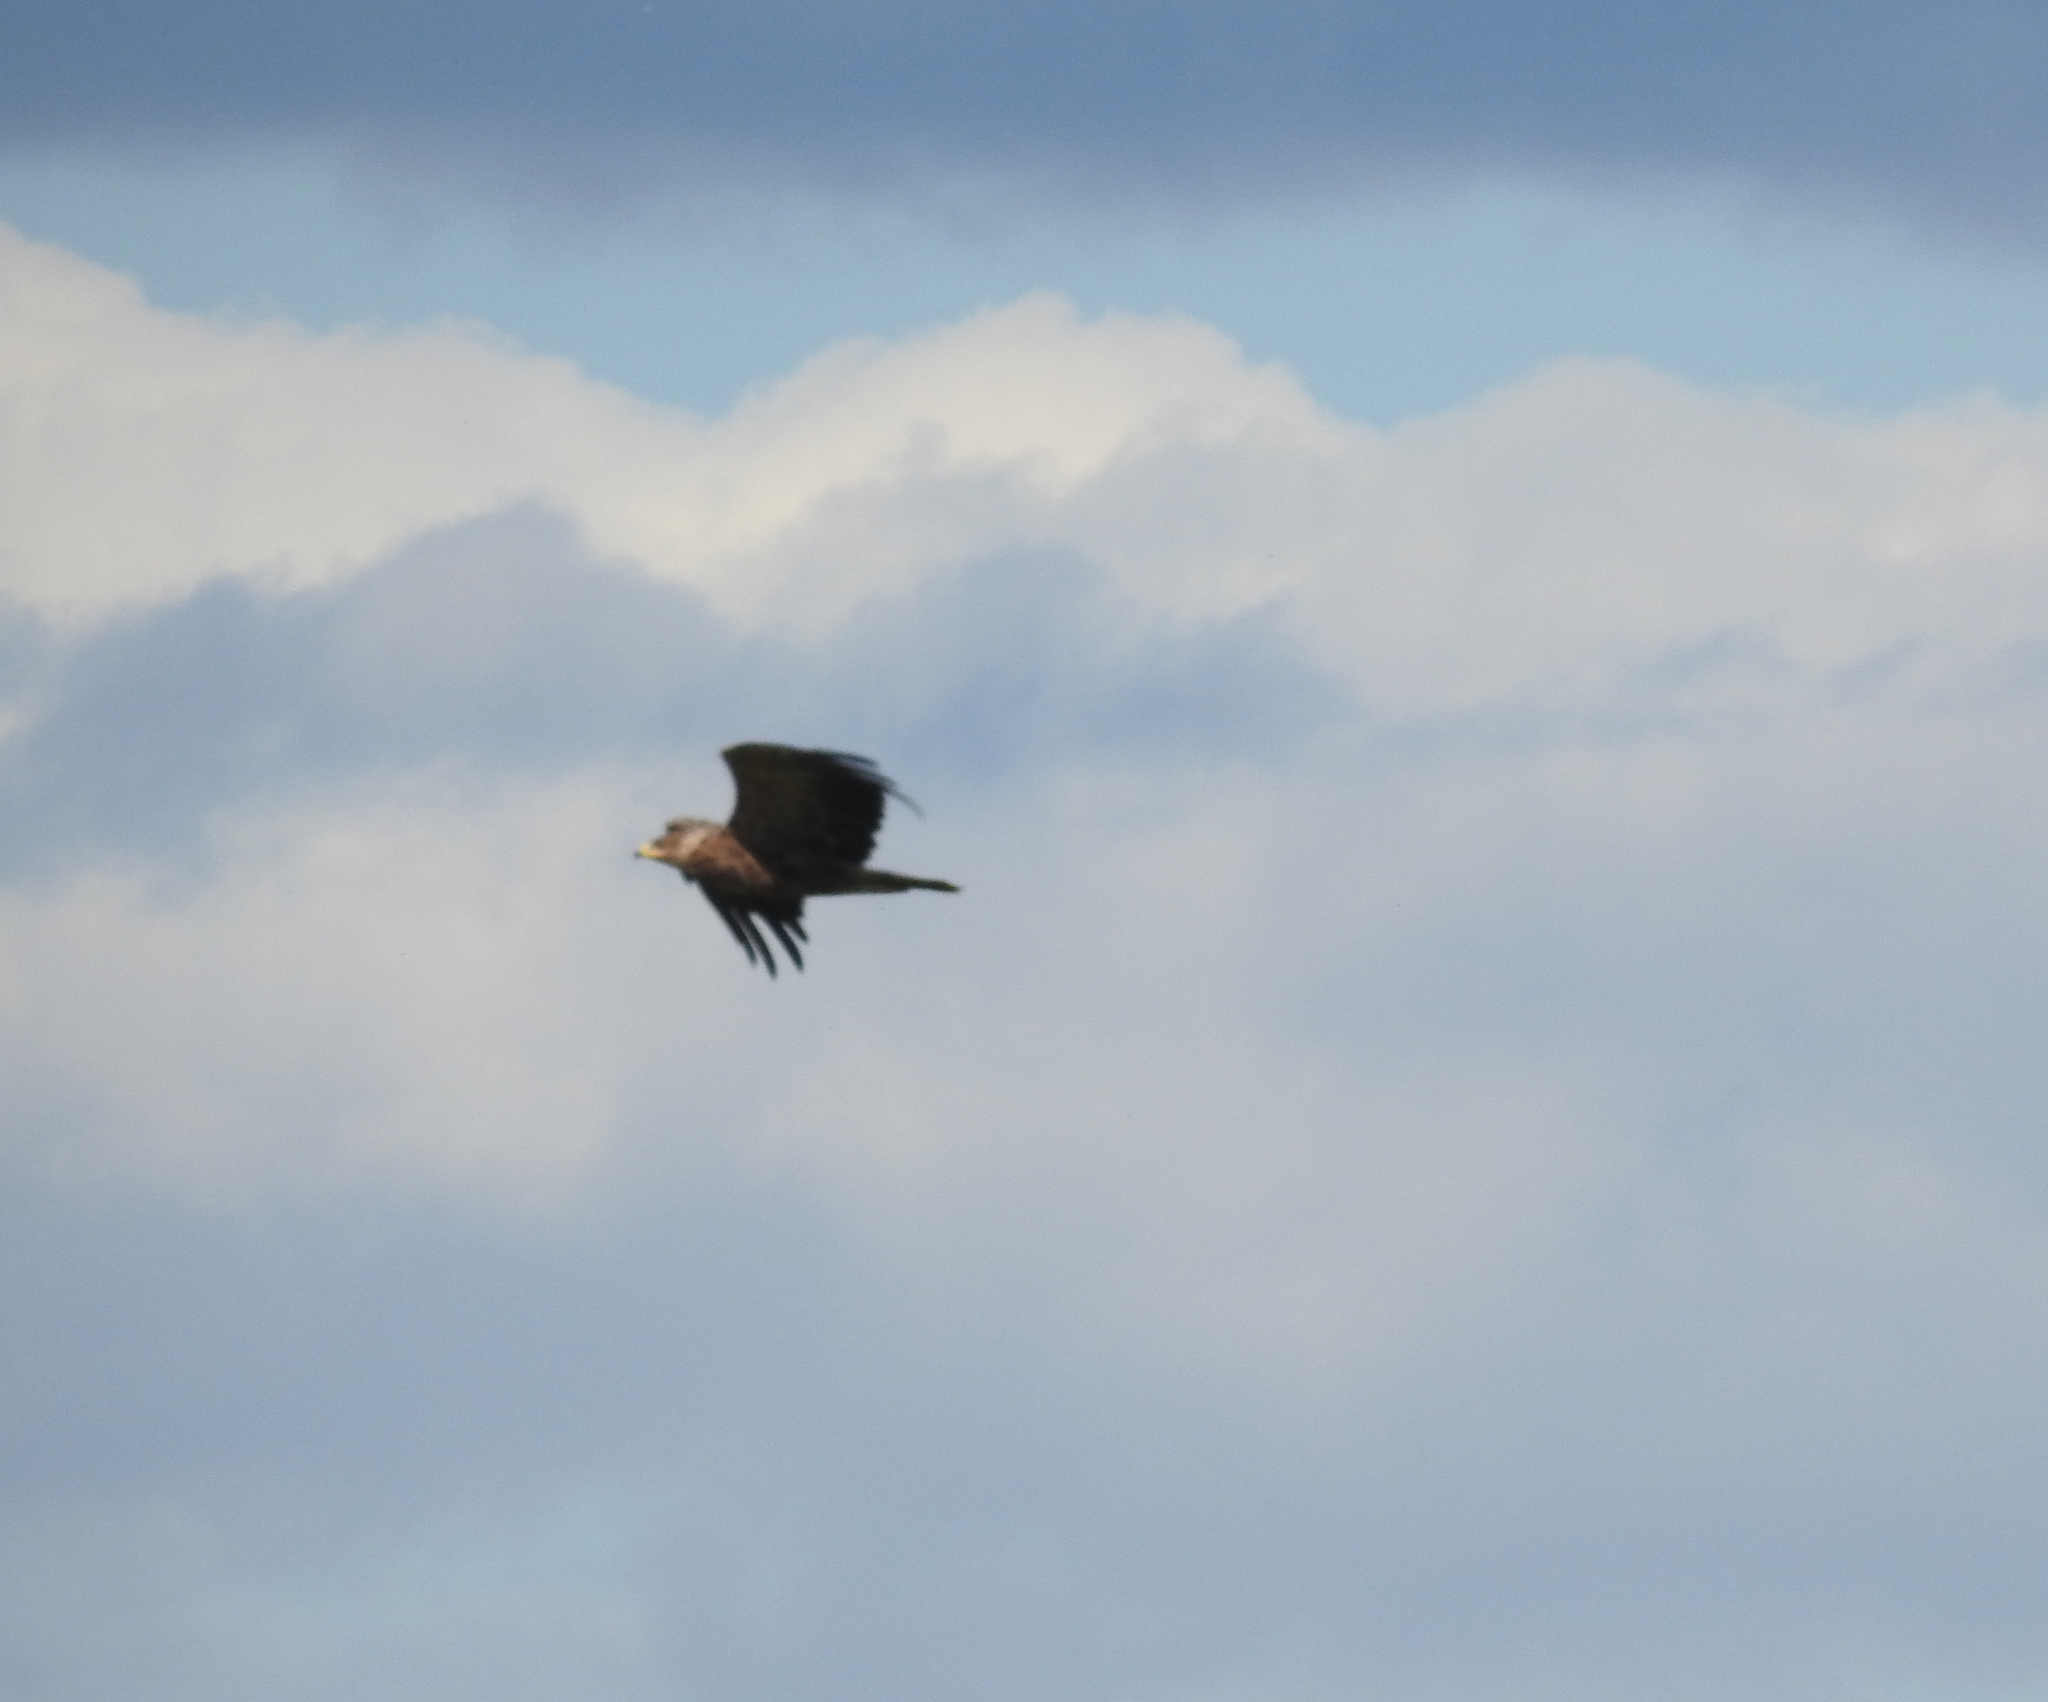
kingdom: Animalia
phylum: Chordata
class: Aves
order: Accipitriformes
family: Accipitridae
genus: Aquila
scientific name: Aquila pomarina
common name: Lesser spotted eagle
